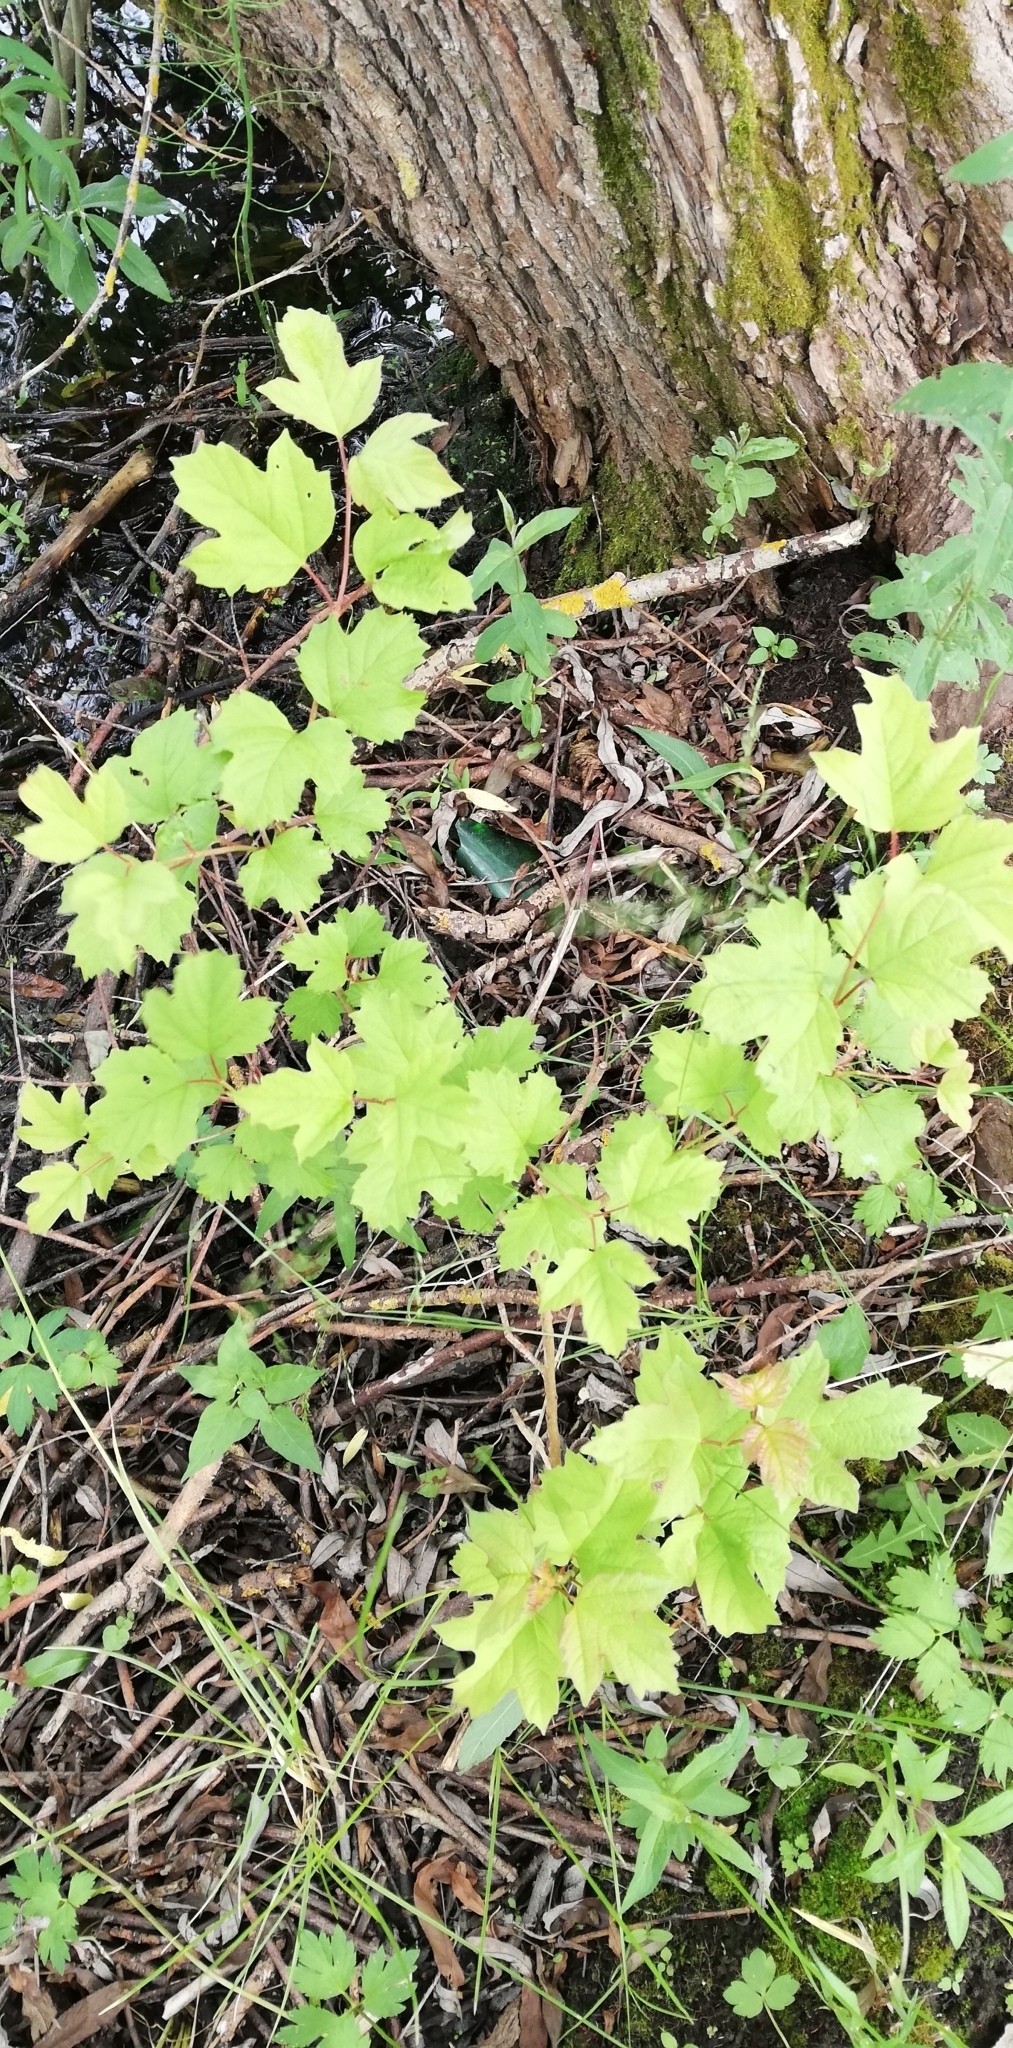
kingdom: Plantae
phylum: Tracheophyta
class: Magnoliopsida
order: Dipsacales
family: Viburnaceae
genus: Viburnum
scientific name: Viburnum opulus
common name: Guelder-rose
